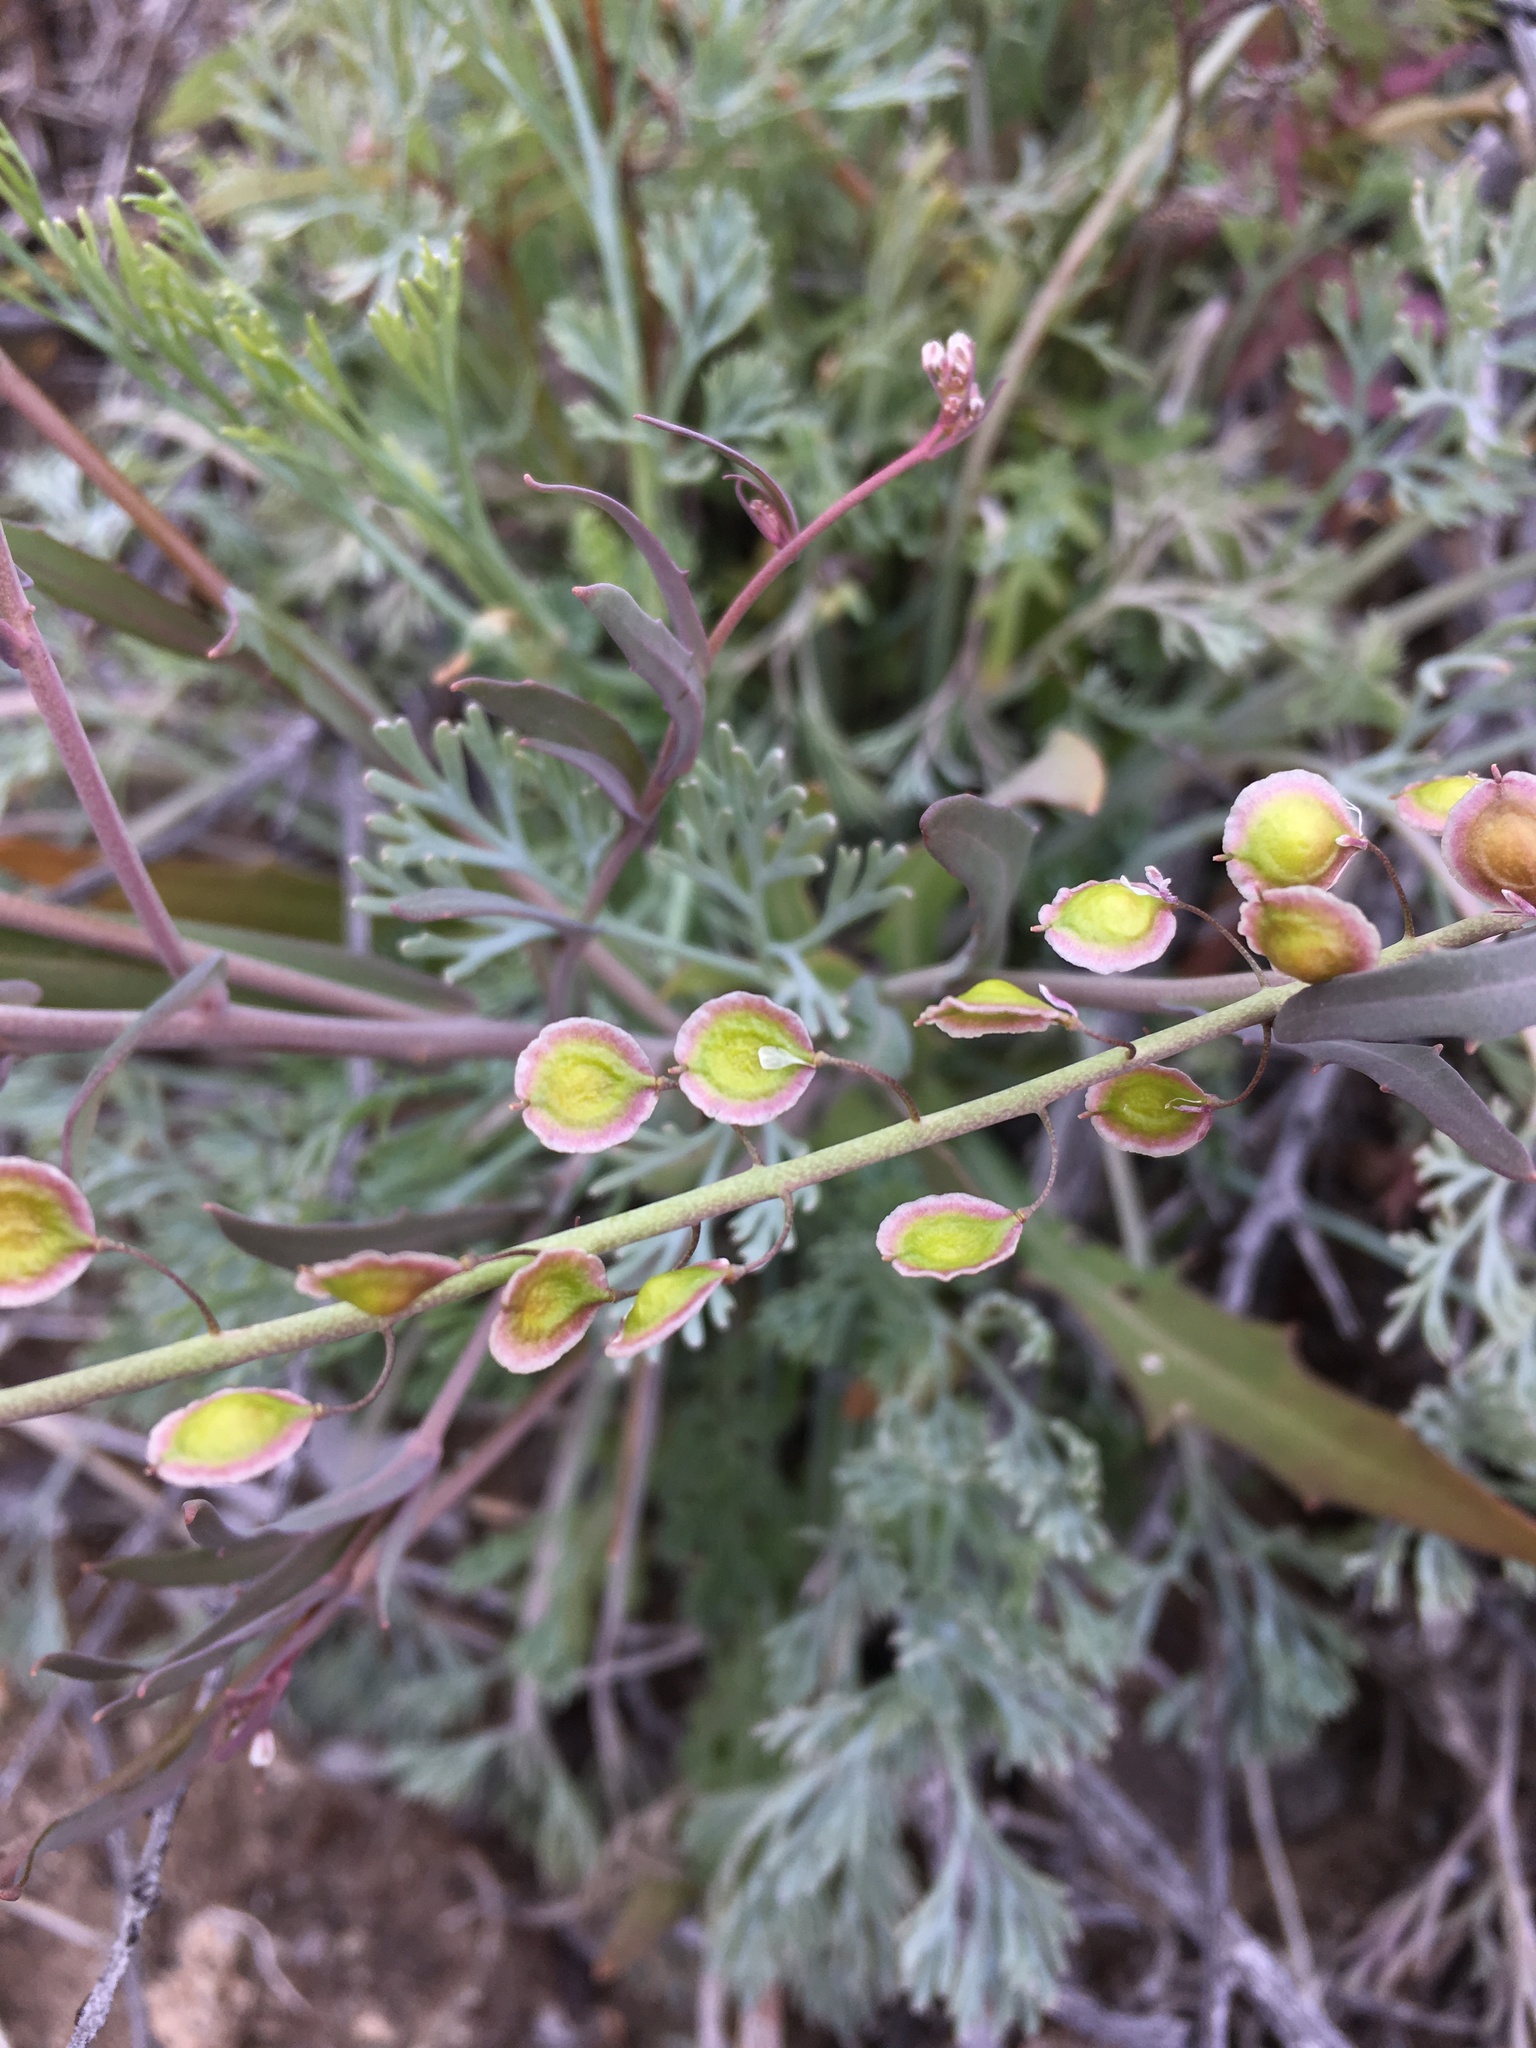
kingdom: Plantae
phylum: Tracheophyta
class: Magnoliopsida
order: Brassicales
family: Brassicaceae
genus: Thysanocarpus
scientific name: Thysanocarpus curvipes
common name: Sand fringepod
